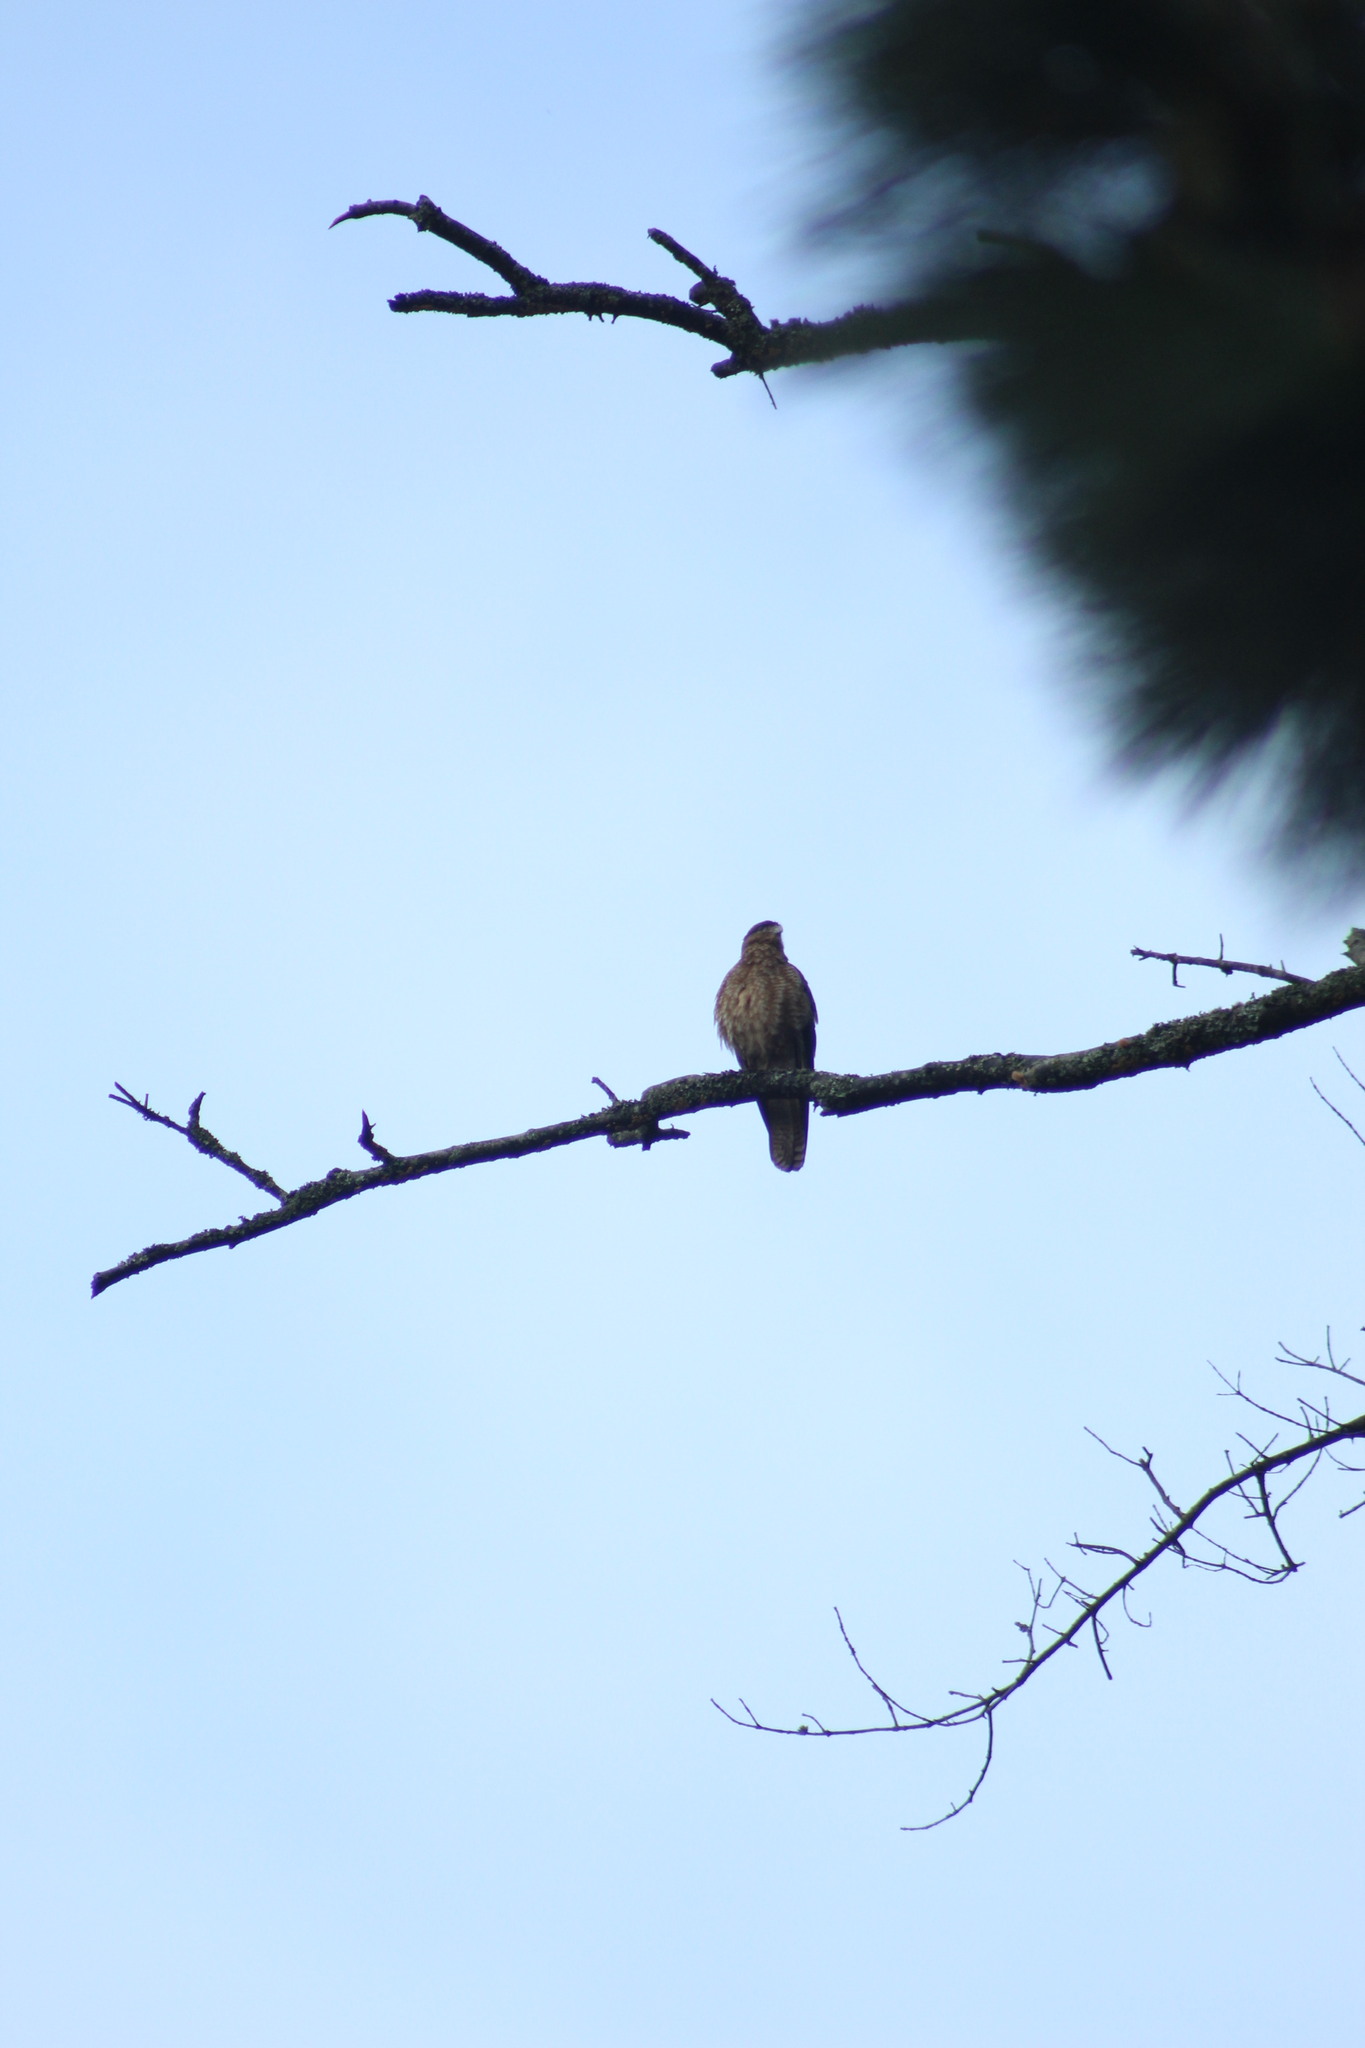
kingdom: Animalia
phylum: Chordata
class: Aves
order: Falconiformes
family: Falconidae
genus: Daptrius
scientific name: Daptrius
